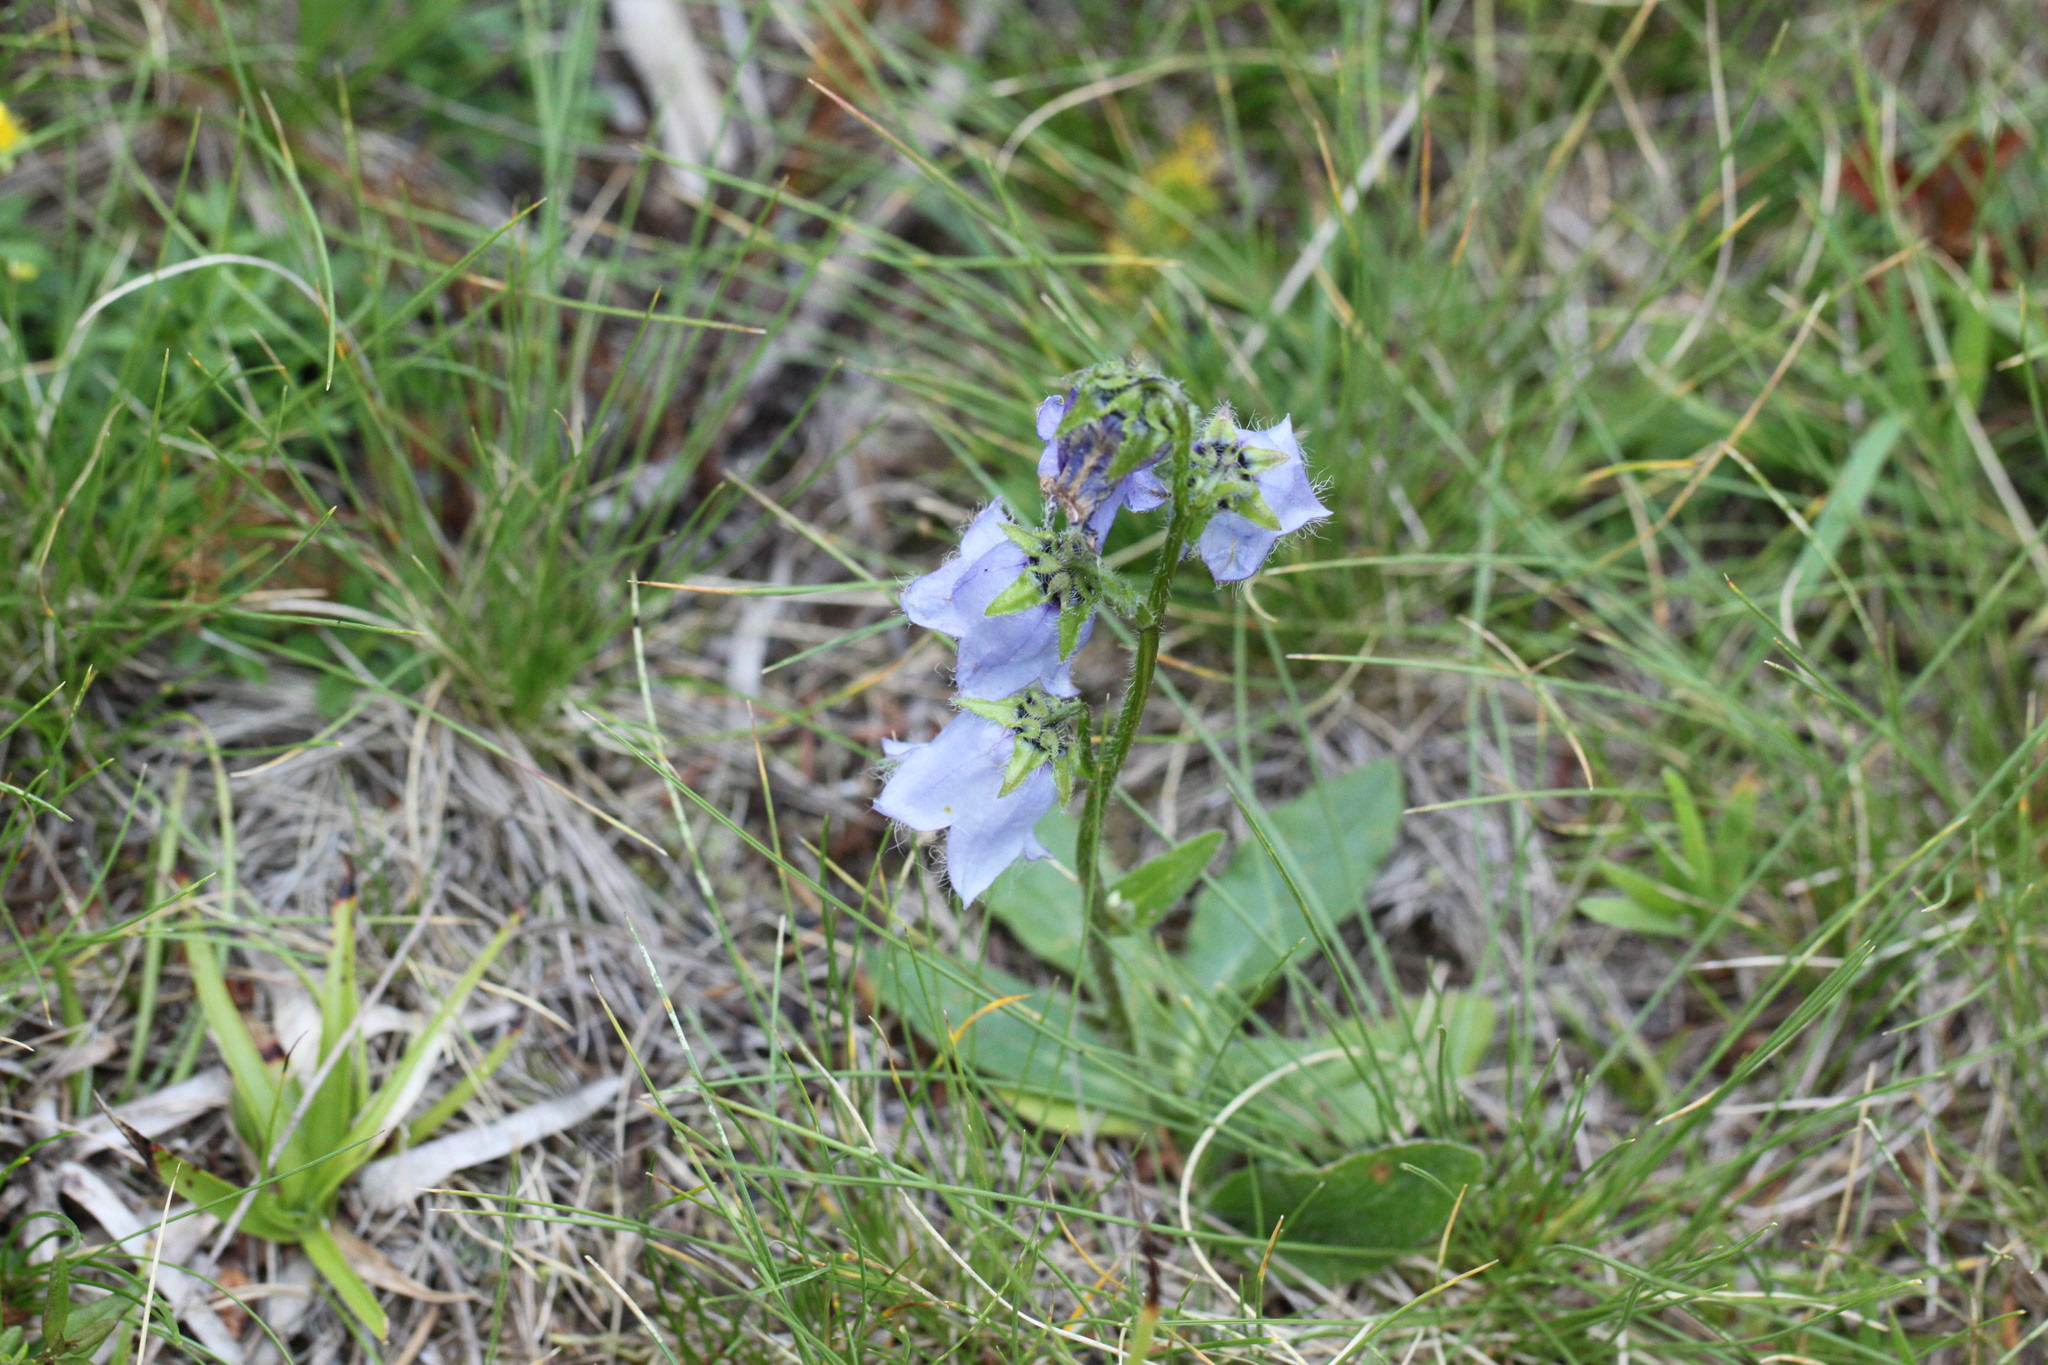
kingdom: Plantae
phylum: Tracheophyta
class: Magnoliopsida
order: Asterales
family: Campanulaceae
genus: Campanula
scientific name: Campanula barbata
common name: Bearded bellflower
